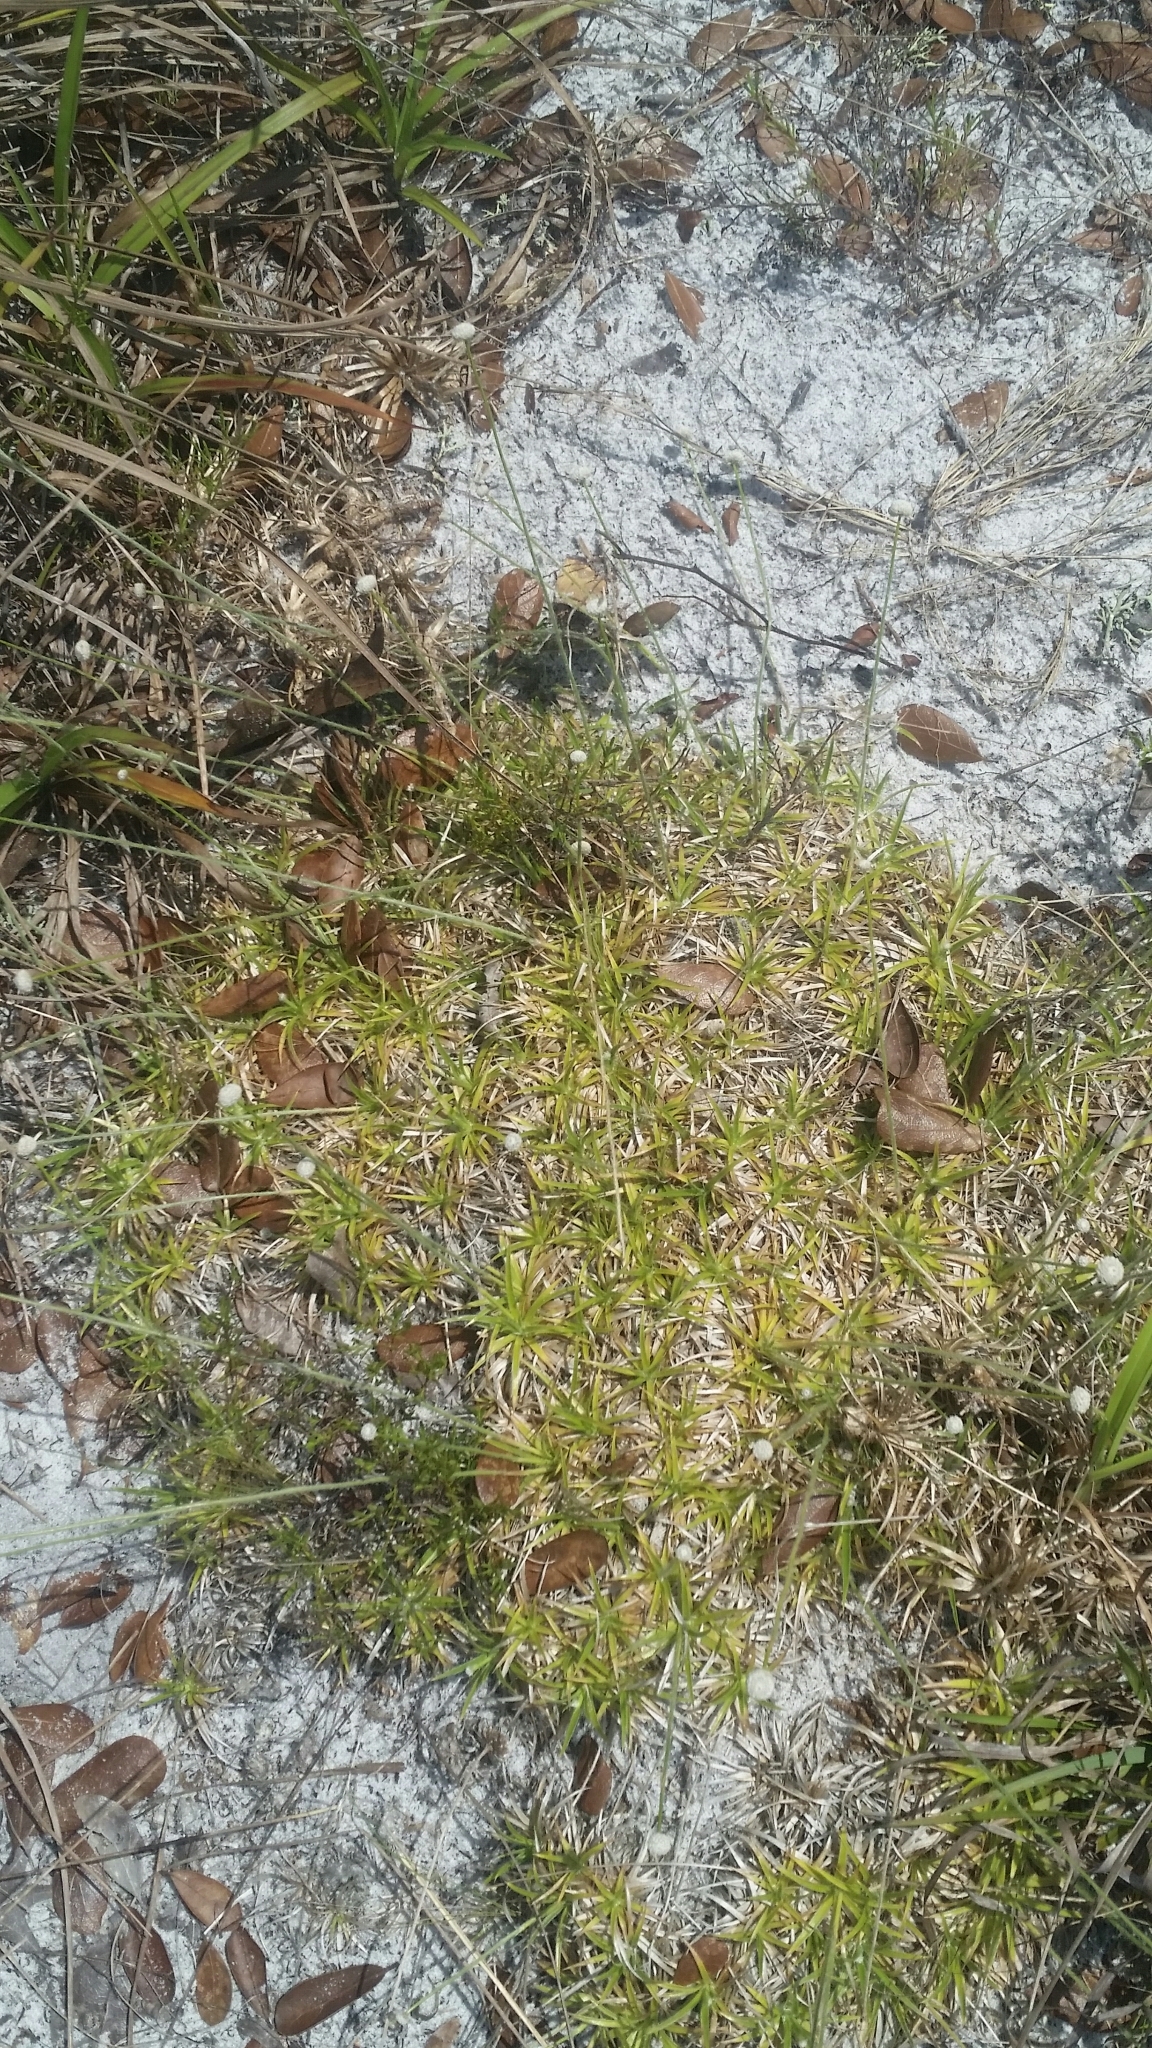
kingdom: Plantae
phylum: Tracheophyta
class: Liliopsida
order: Poales
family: Eriocaulaceae
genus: Paepalanthus
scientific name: Paepalanthus beyrichianus
